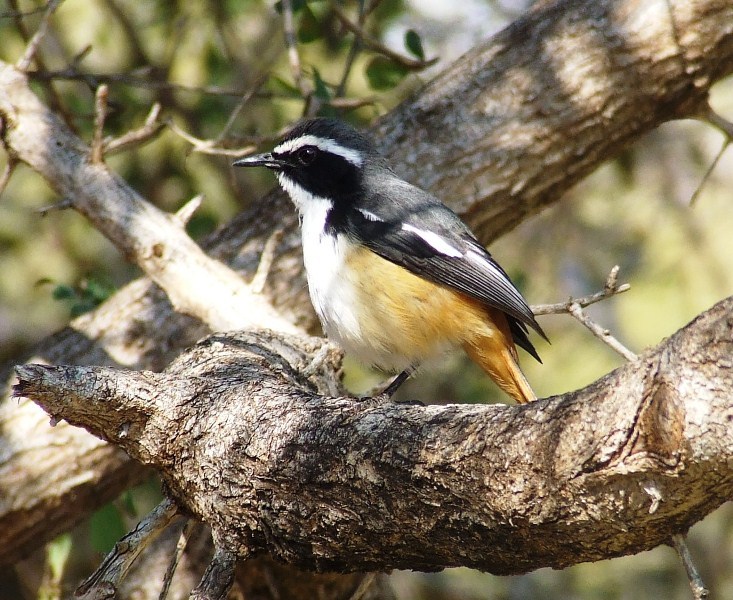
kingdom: Animalia
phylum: Chordata
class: Aves
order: Passeriformes
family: Muscicapidae
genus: Cossypha
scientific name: Cossypha humeralis
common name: White-throated robin-chat
